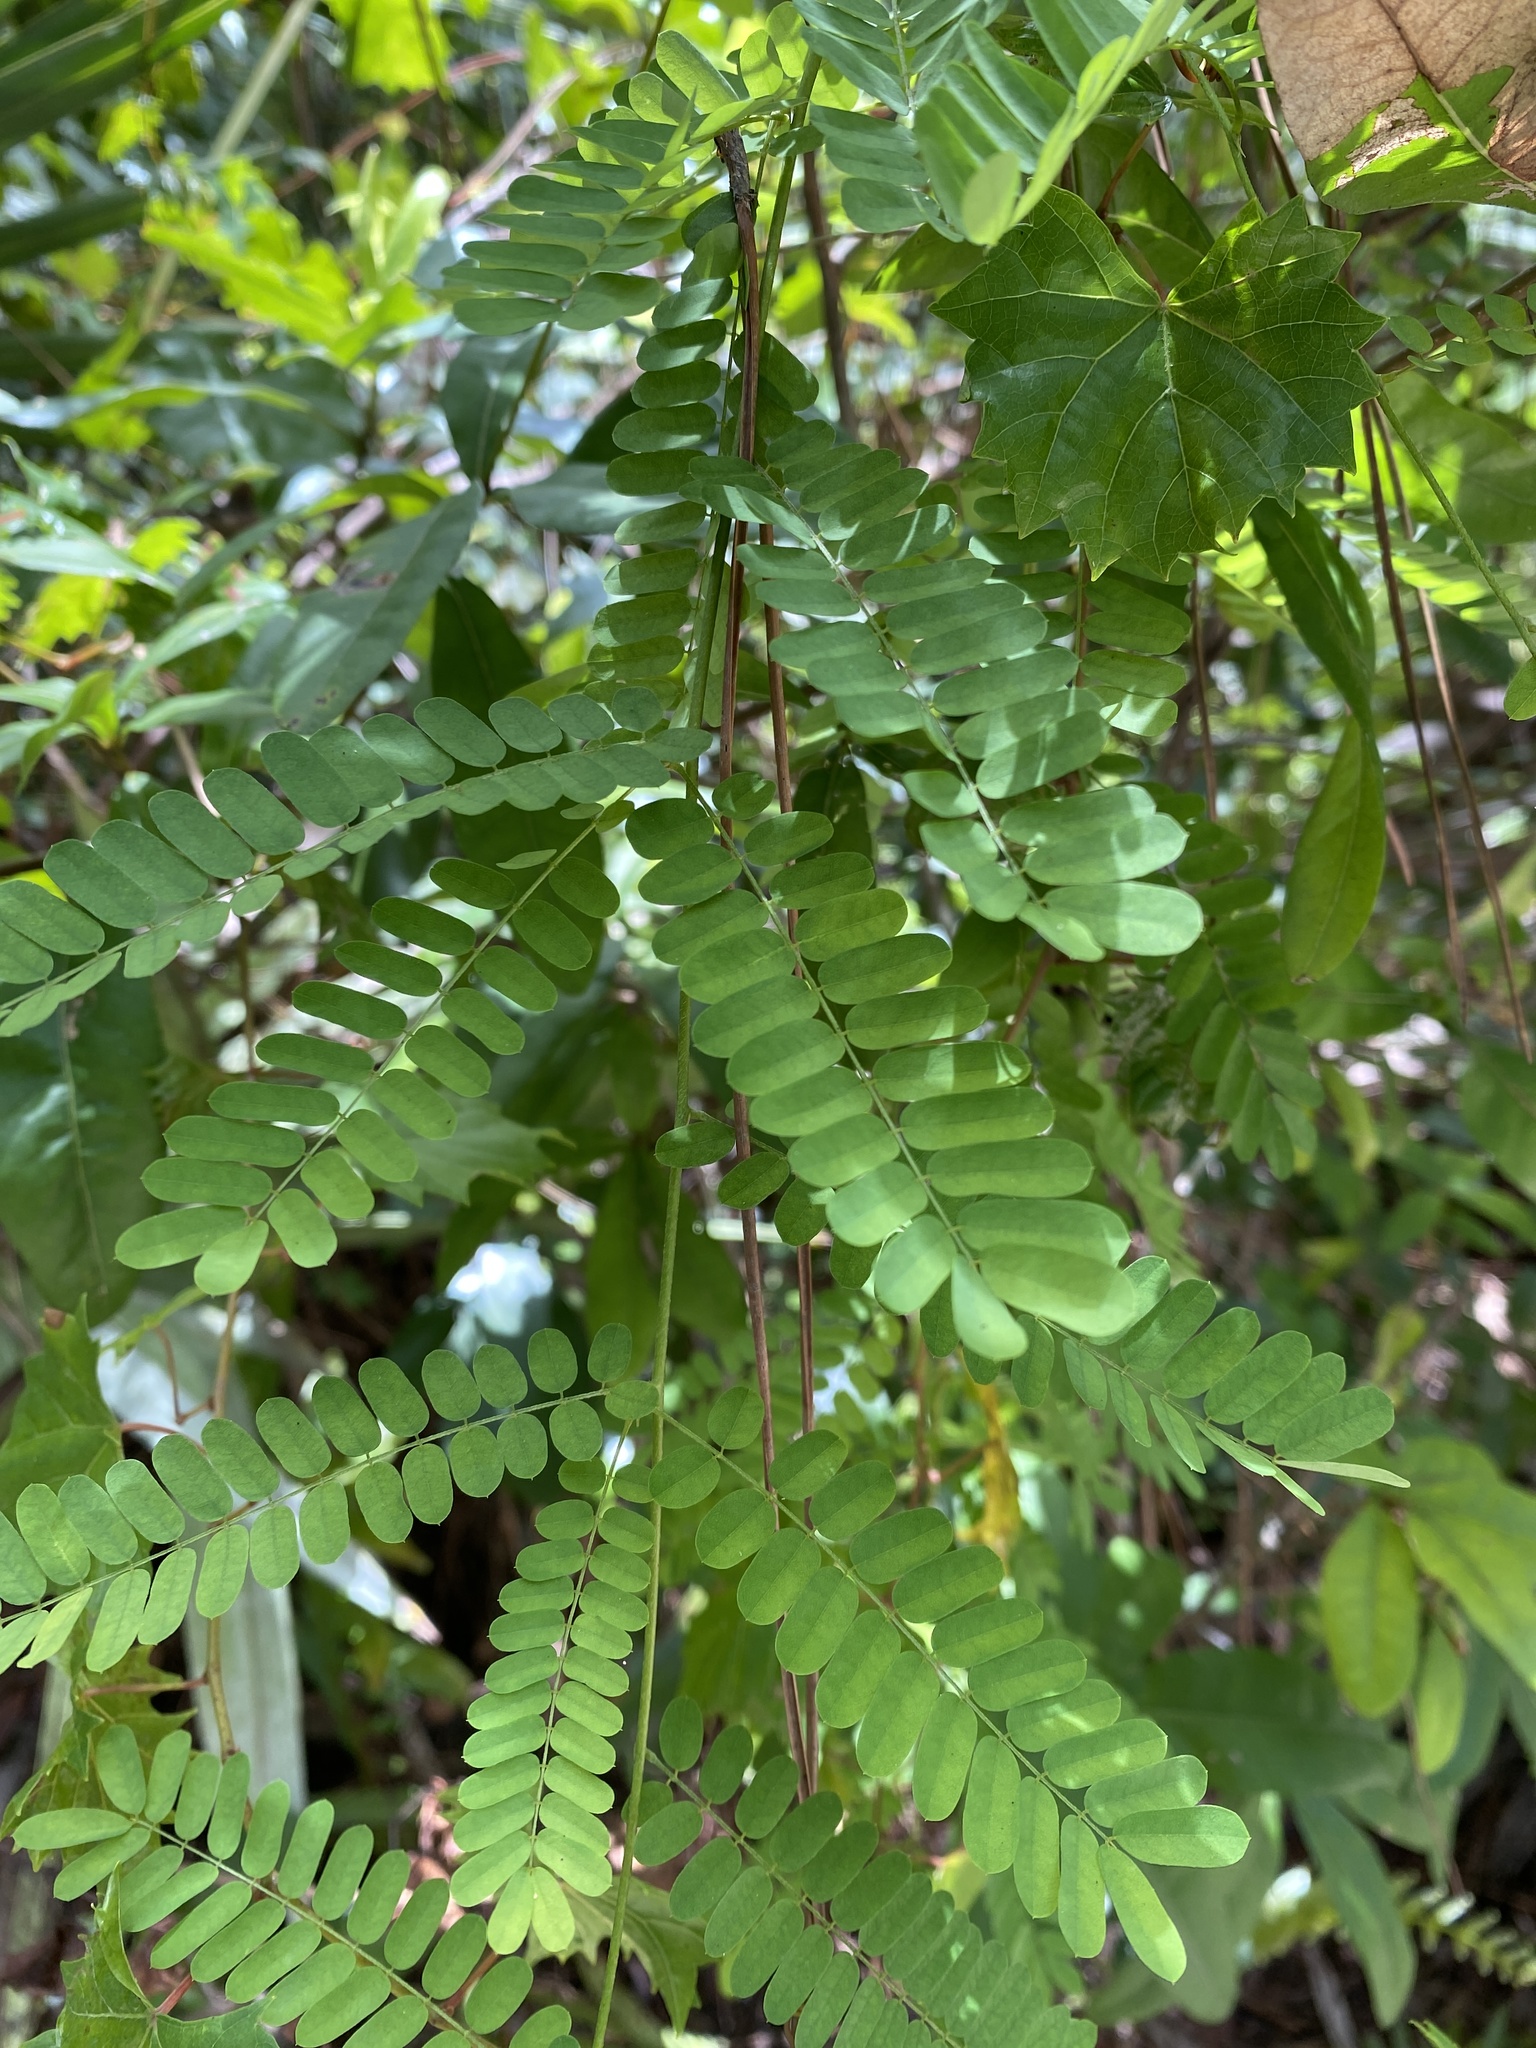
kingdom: Plantae
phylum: Tracheophyta
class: Magnoliopsida
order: Fabales
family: Fabaceae
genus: Abrus
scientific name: Abrus precatorius
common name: Rosarypea
